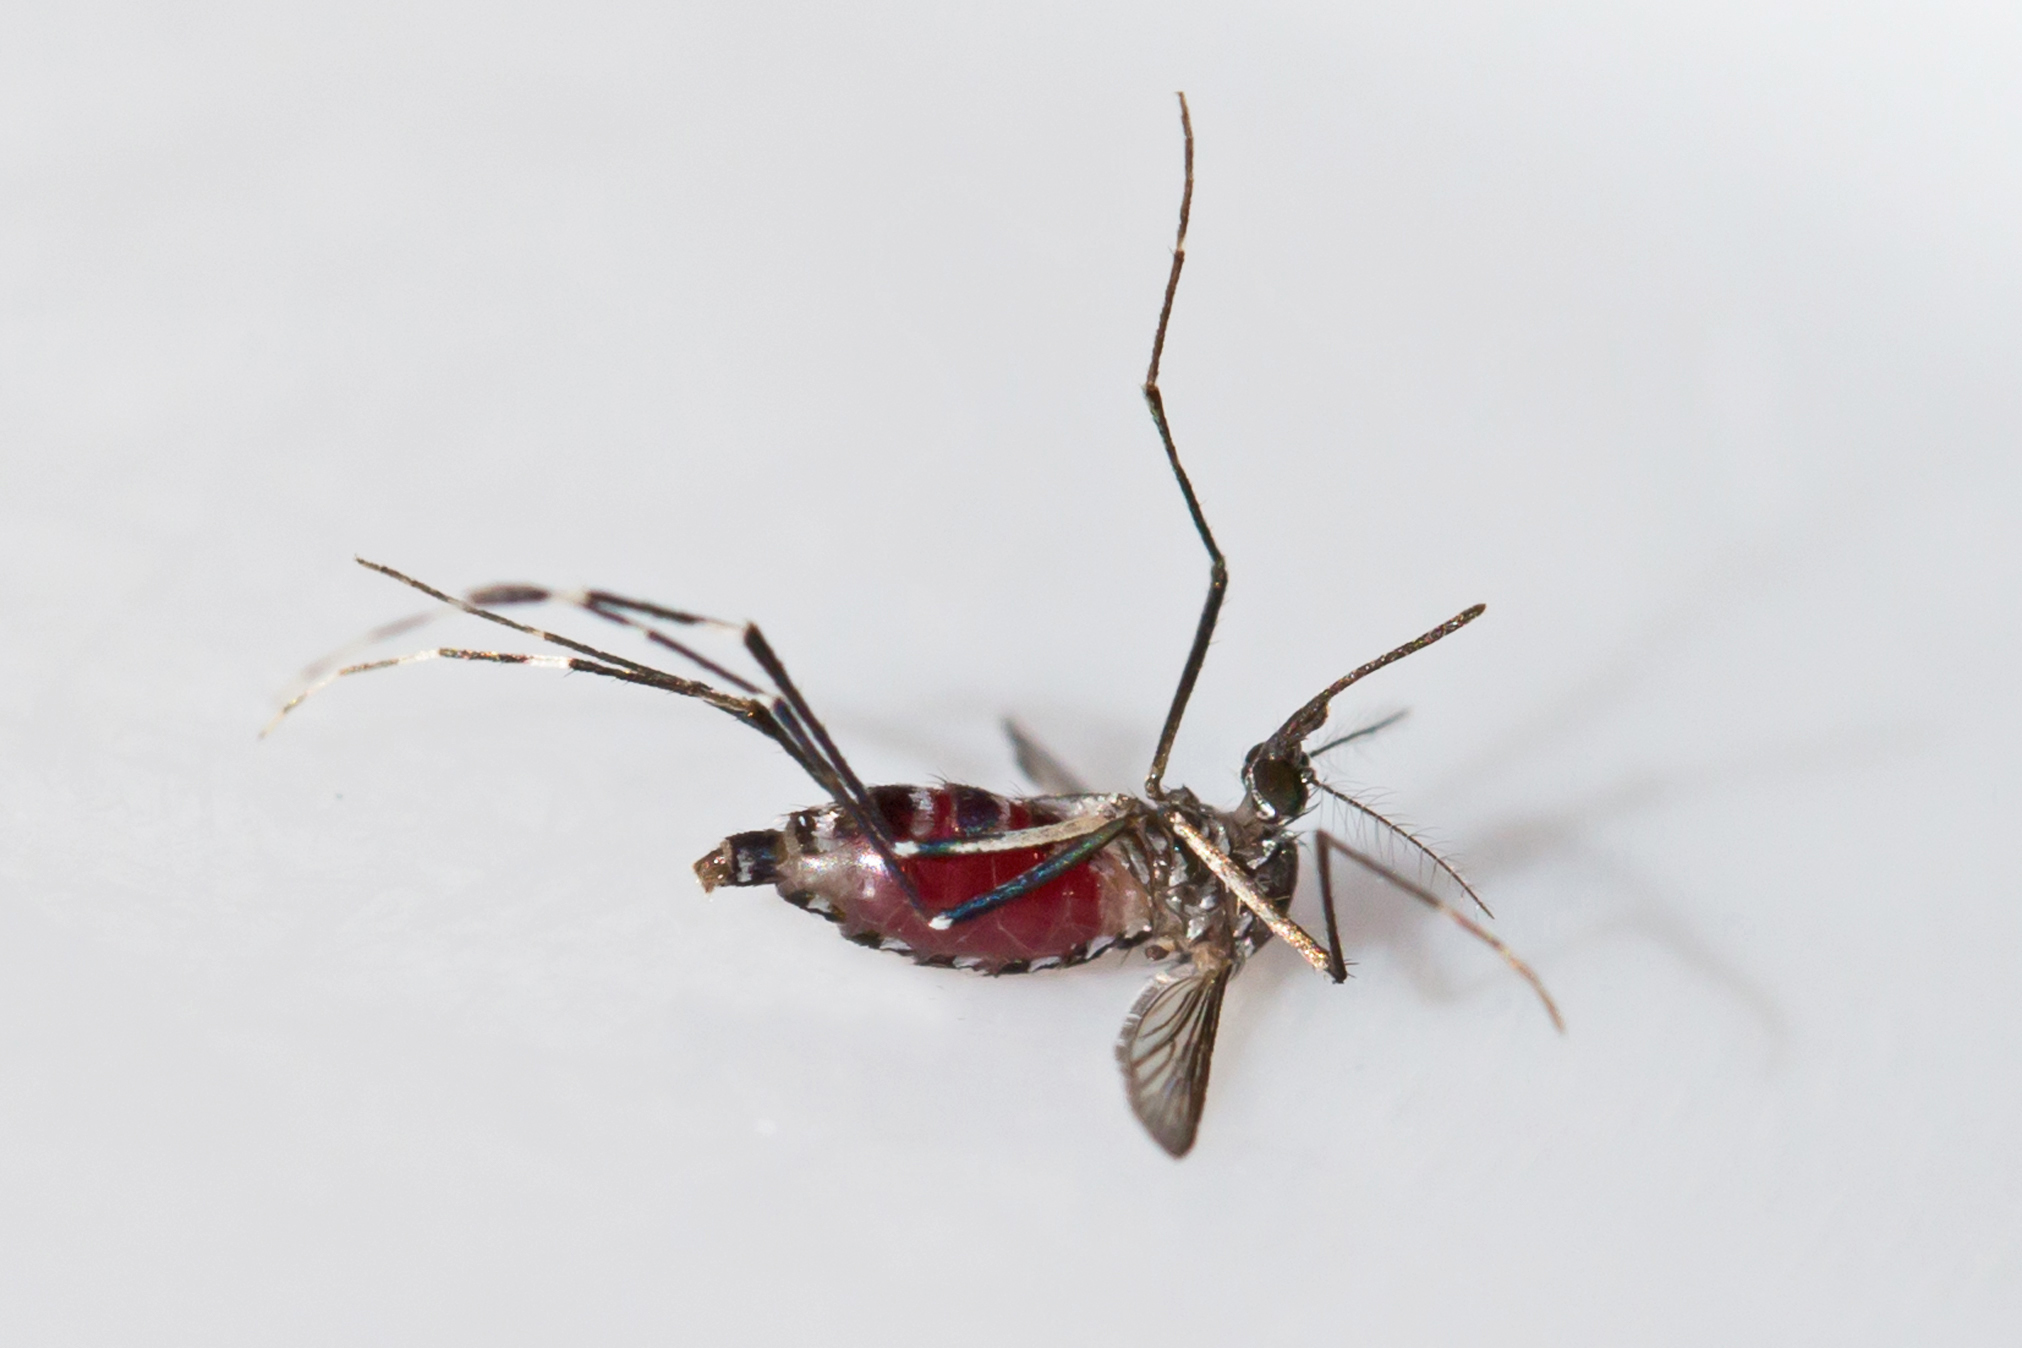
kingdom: Animalia
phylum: Arthropoda
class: Insecta
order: Diptera
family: Culicidae
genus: Aedes
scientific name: Aedes albopictus
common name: Tiger mosquito
